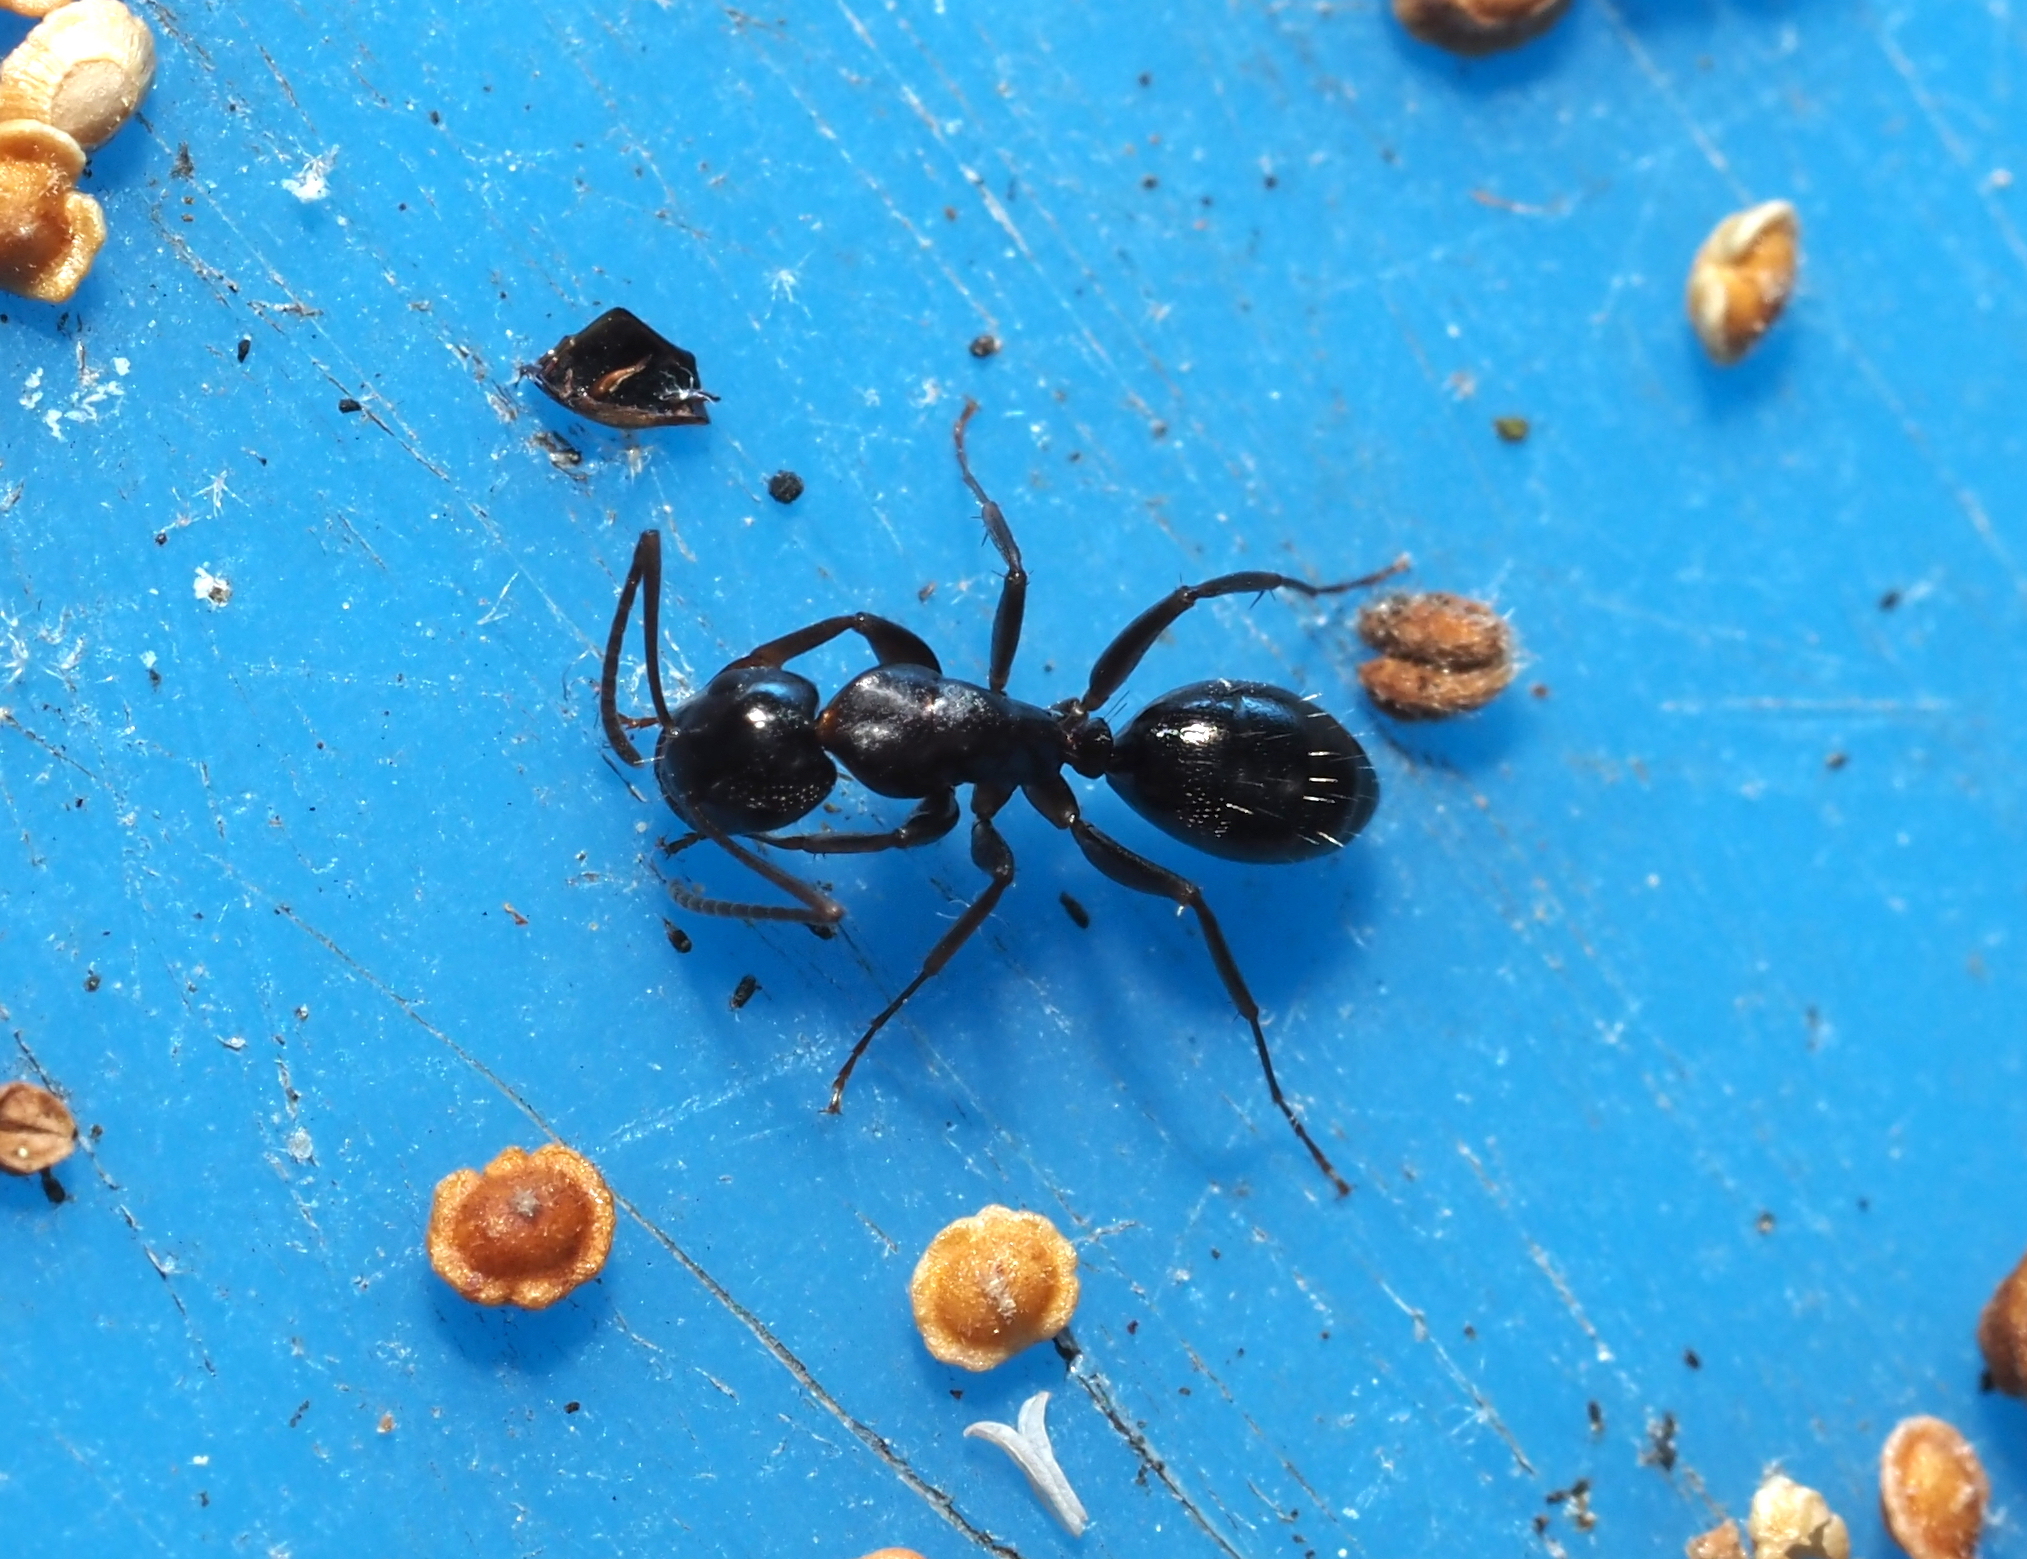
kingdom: Animalia
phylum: Arthropoda
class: Insecta
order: Hymenoptera
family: Formicidae
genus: Camponotus
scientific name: Camponotus nearcticus
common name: Smaller carpenter ant
